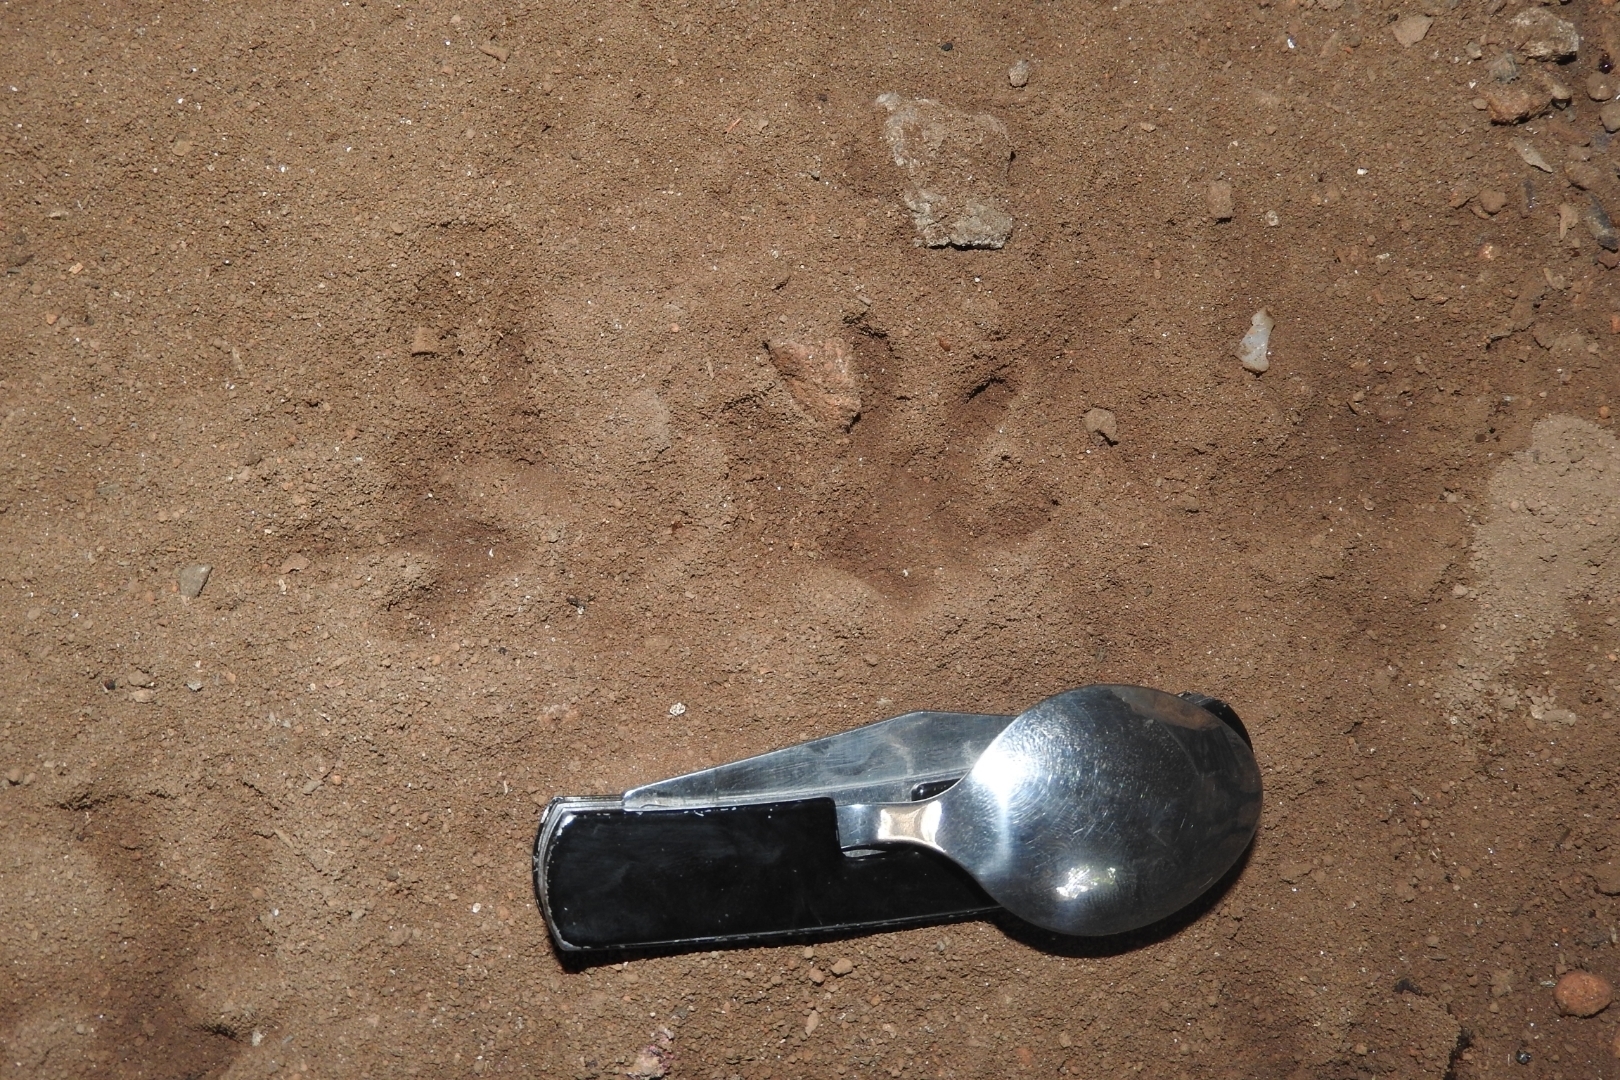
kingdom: Animalia
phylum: Chordata
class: Mammalia
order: Didelphimorphia
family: Didelphidae
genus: Didelphis
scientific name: Didelphis
